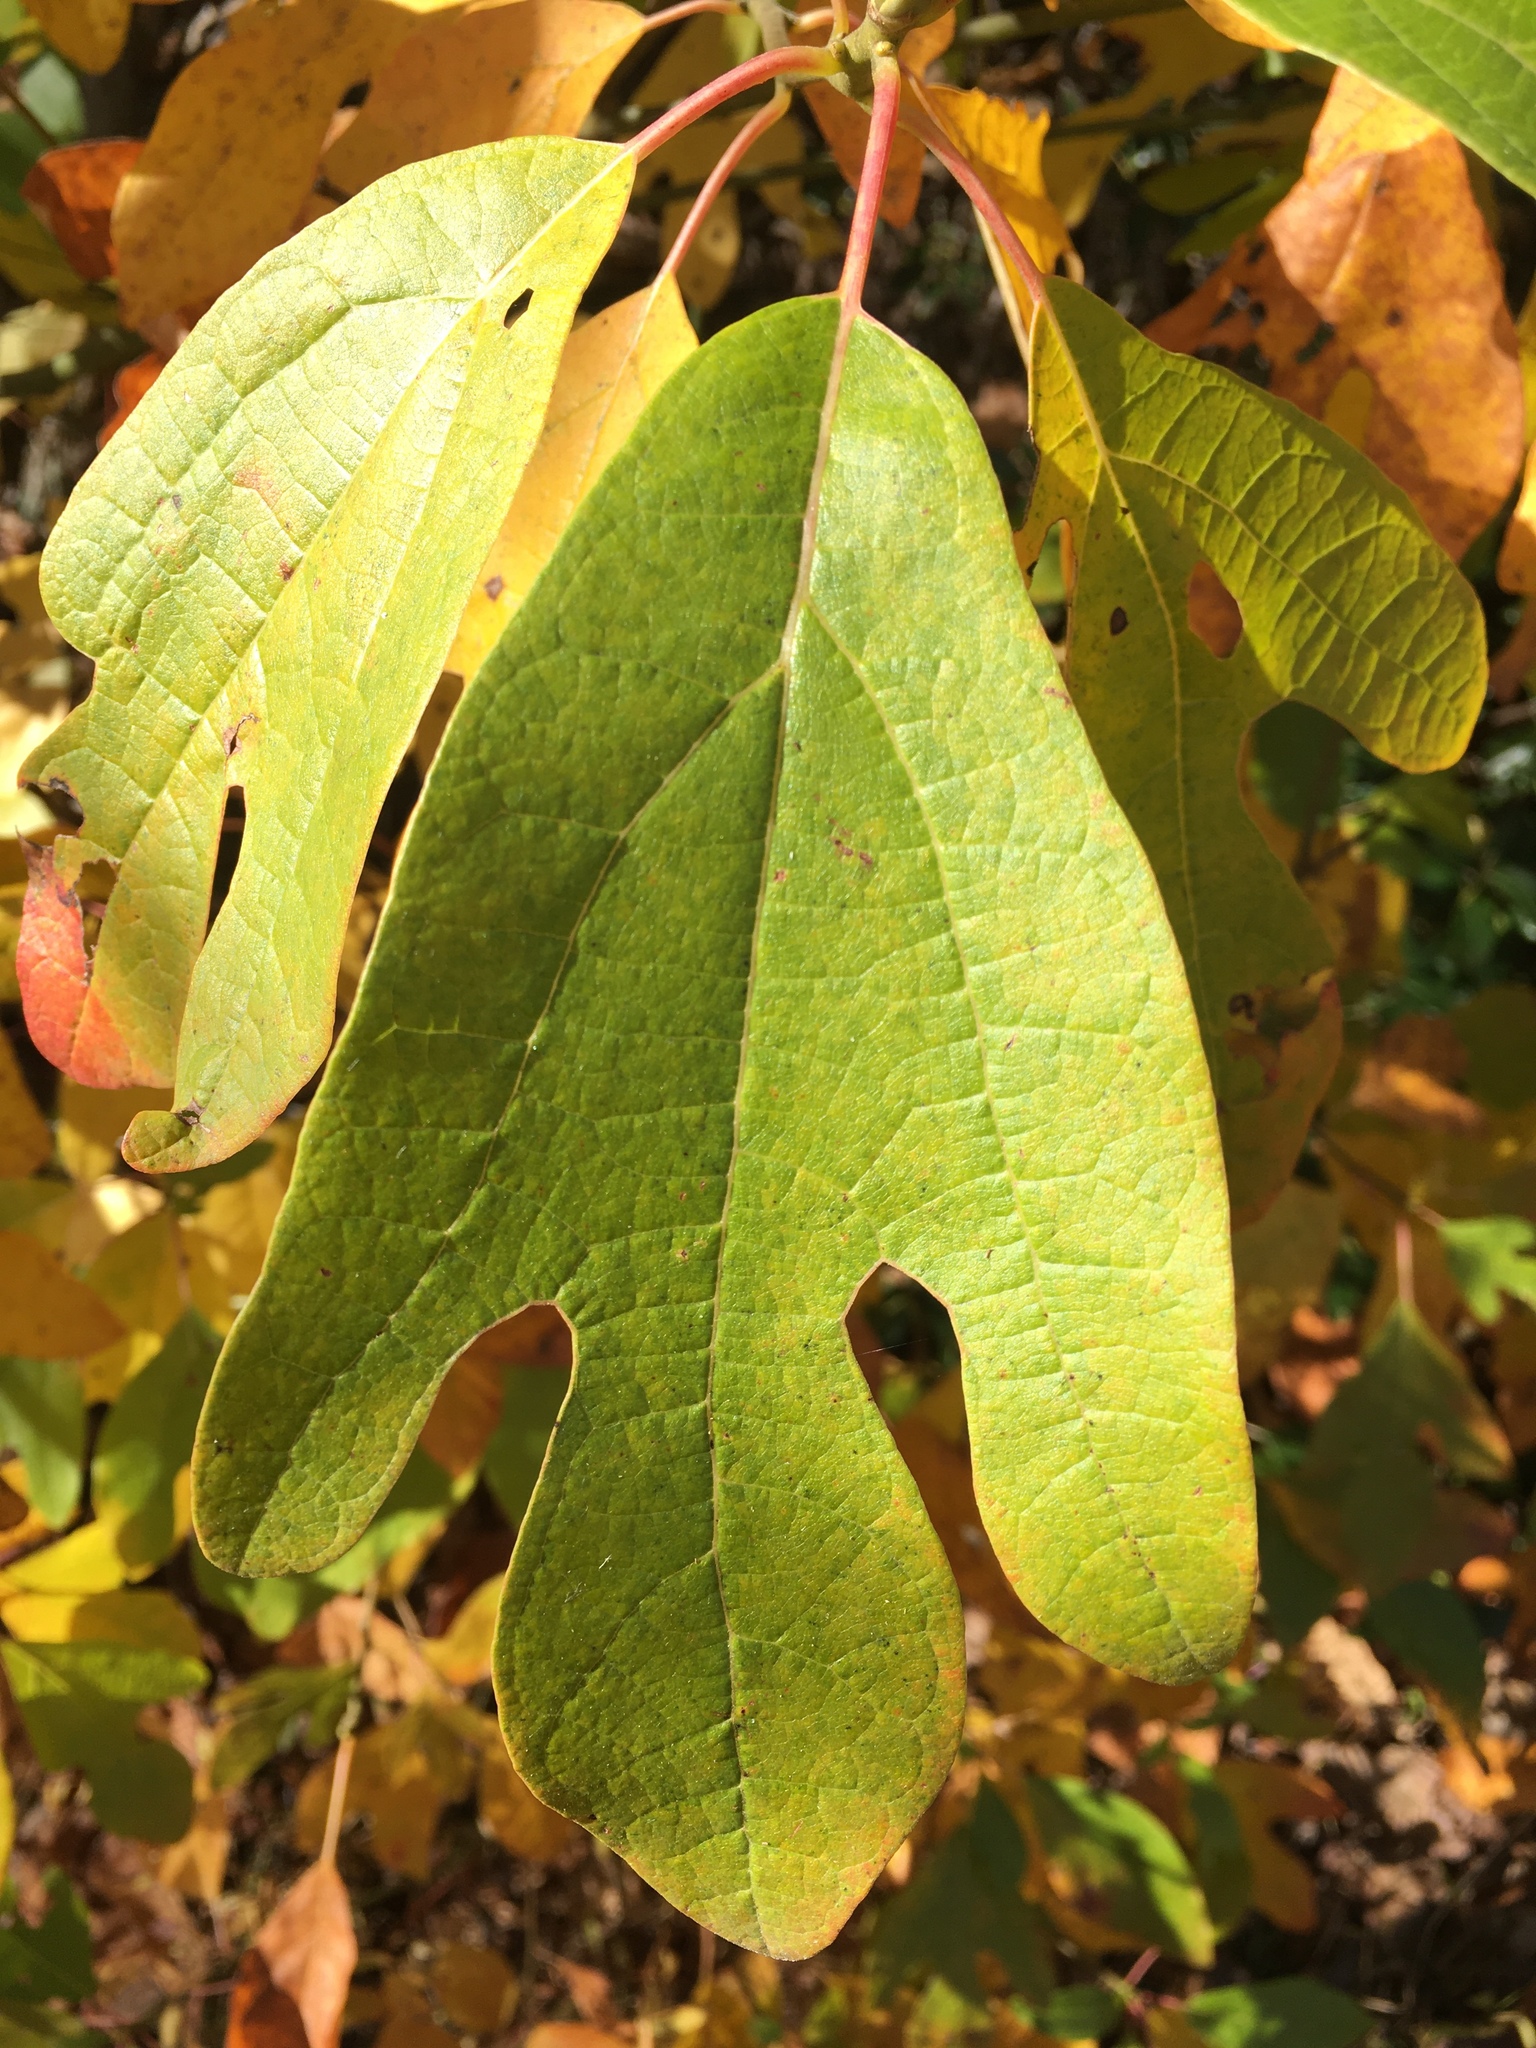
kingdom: Plantae
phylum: Tracheophyta
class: Magnoliopsida
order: Laurales
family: Lauraceae
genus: Sassafras
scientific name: Sassafras albidum
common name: Sassafras
